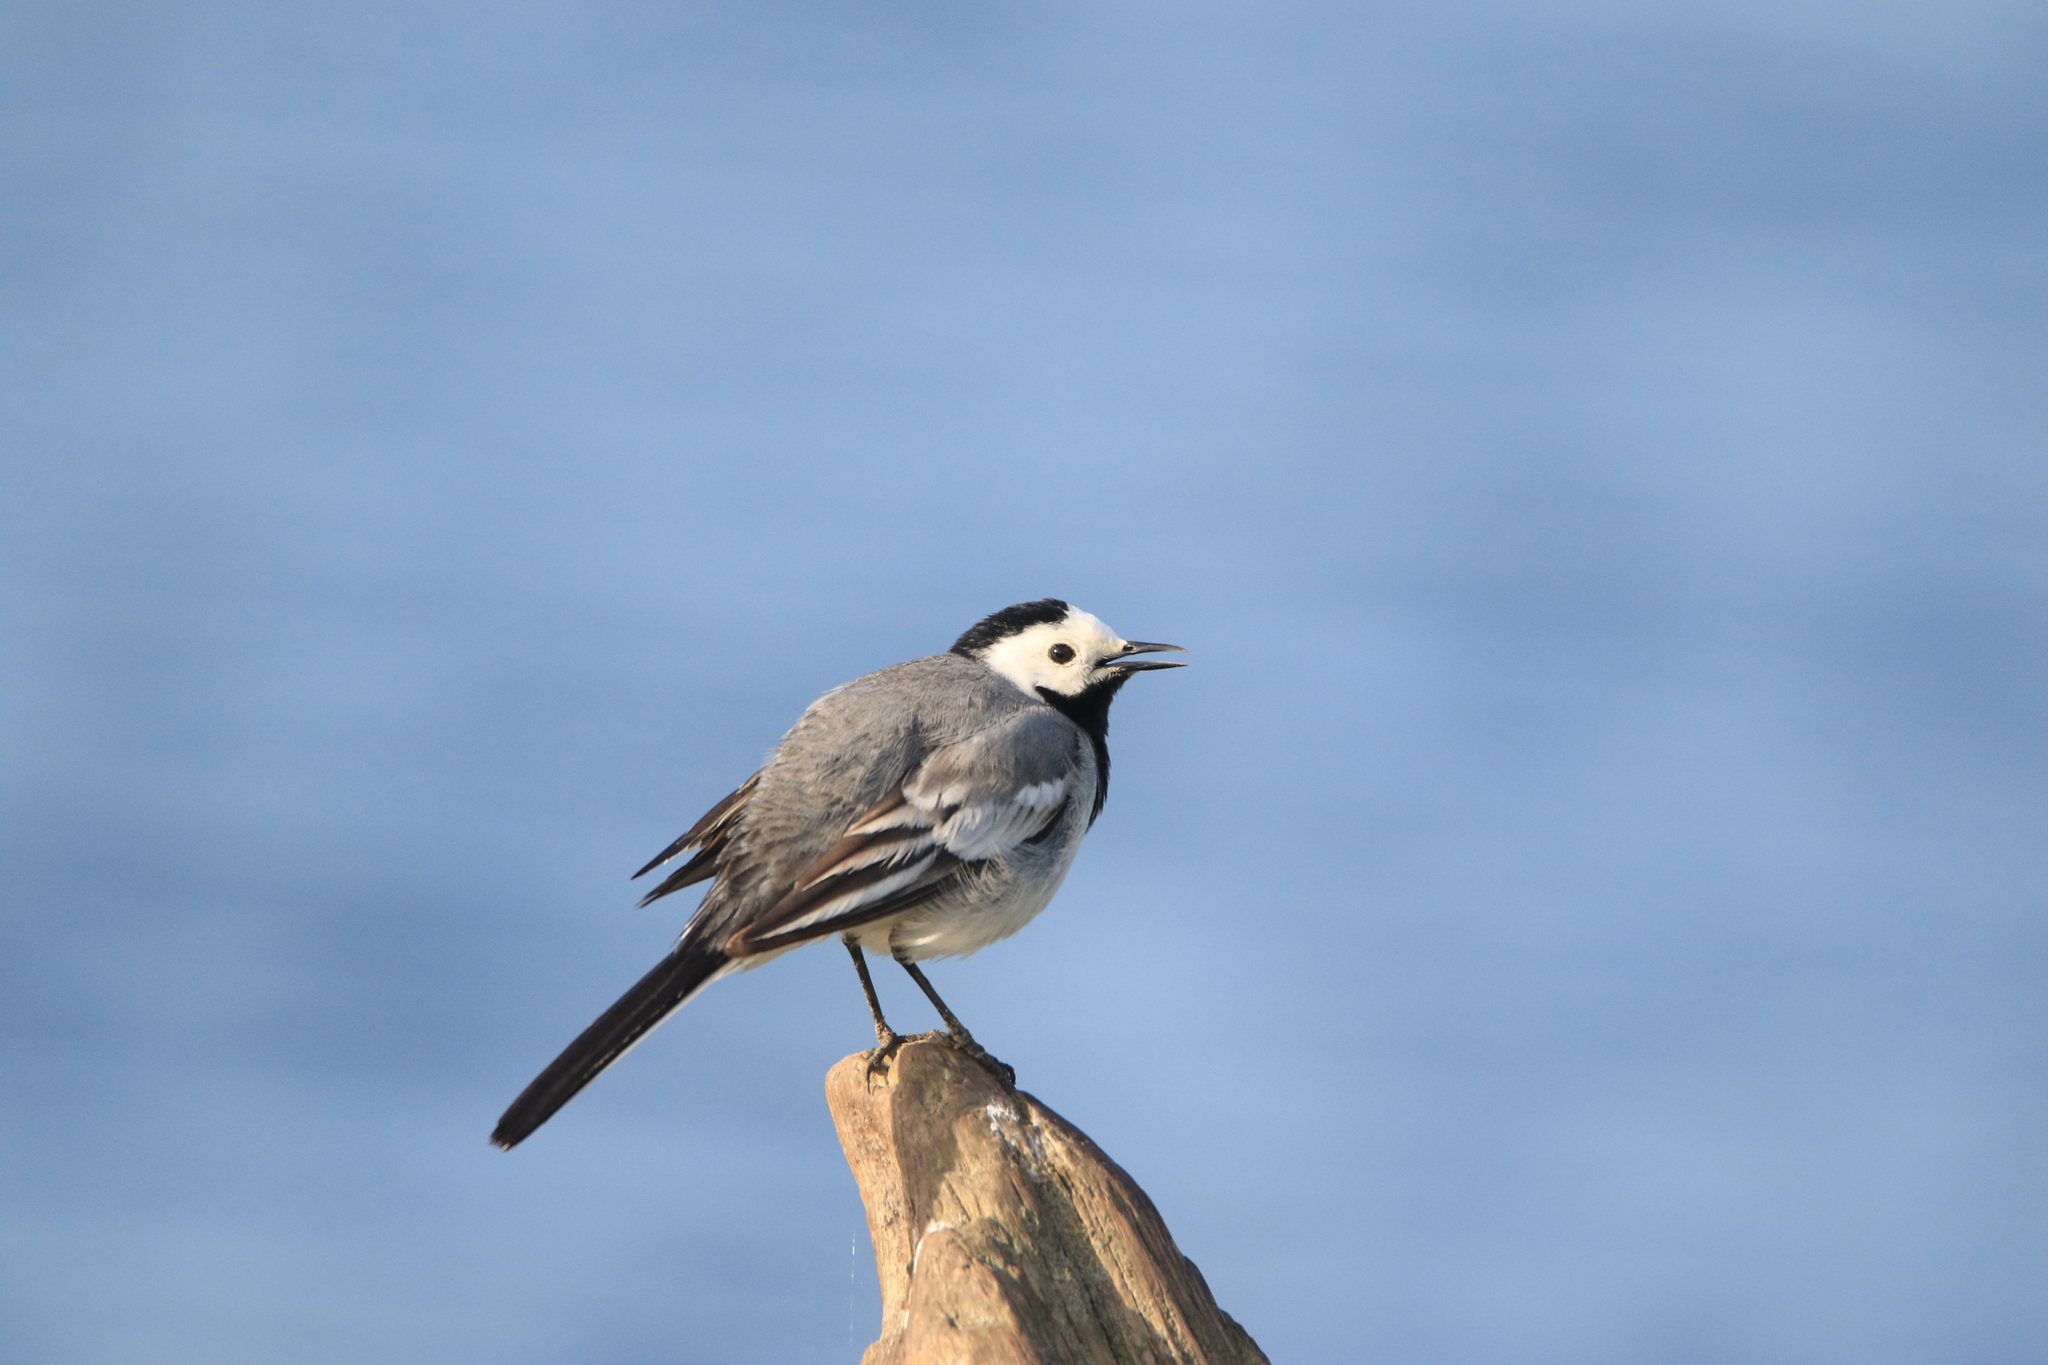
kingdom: Animalia
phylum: Chordata
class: Aves
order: Passeriformes
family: Motacillidae
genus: Motacilla
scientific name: Motacilla alba
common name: White wagtail
